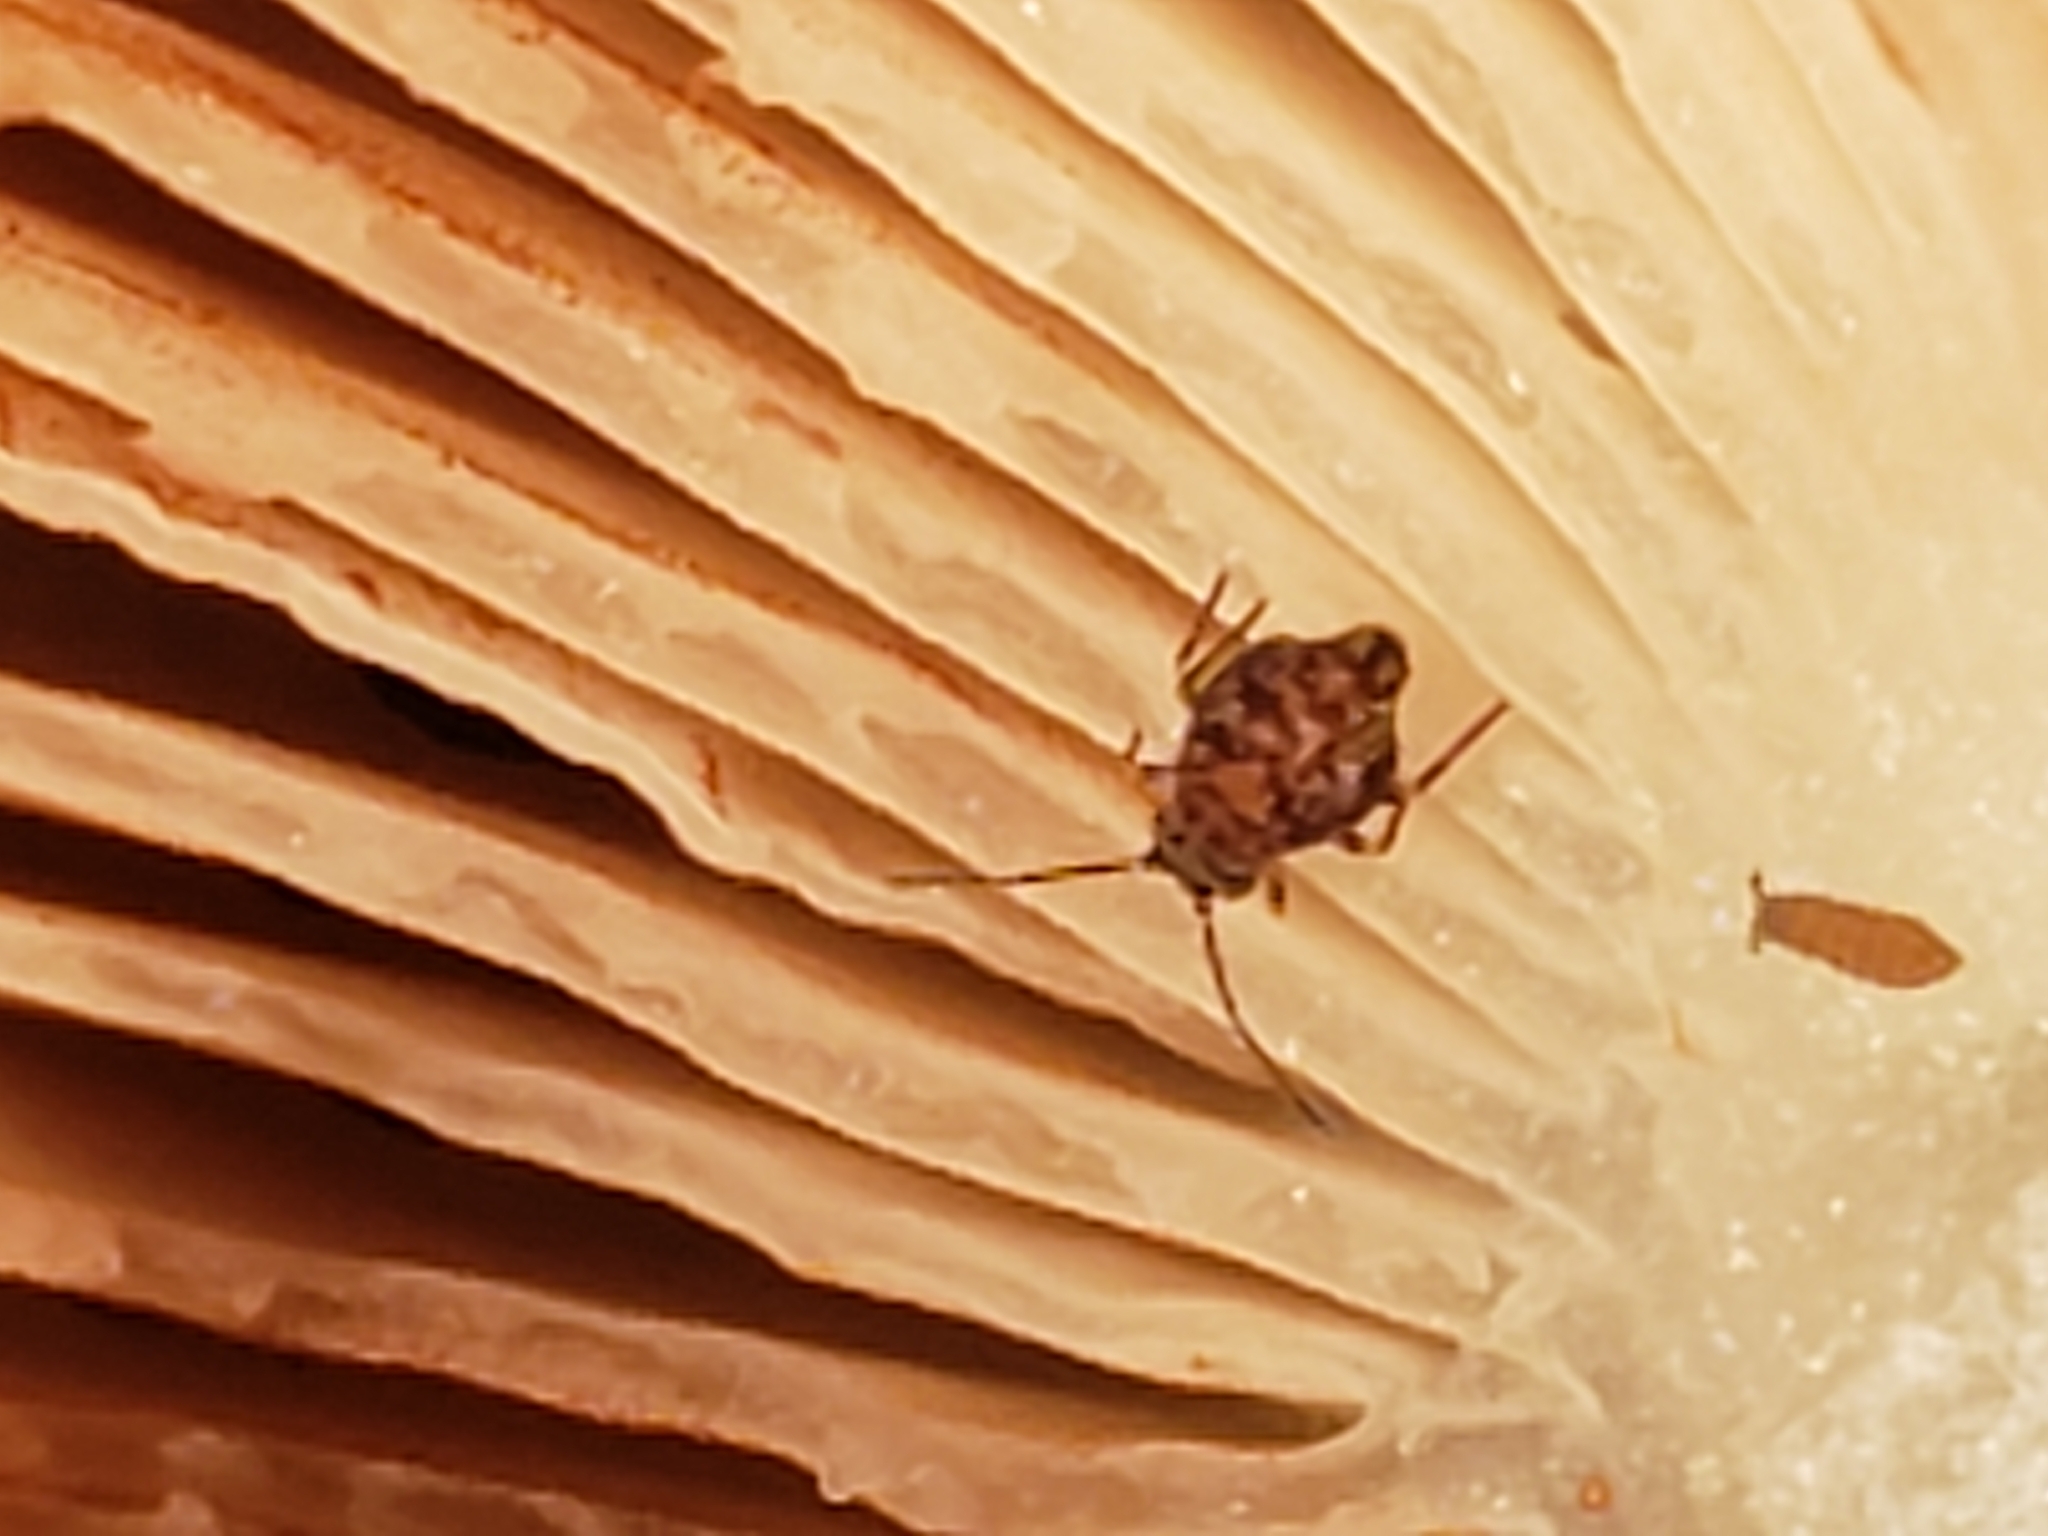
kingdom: Animalia
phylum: Arthropoda
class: Collembola
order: Symphypleona
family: Dicyrtomidae
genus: Ptenothrix
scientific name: Ptenothrix marmorata
